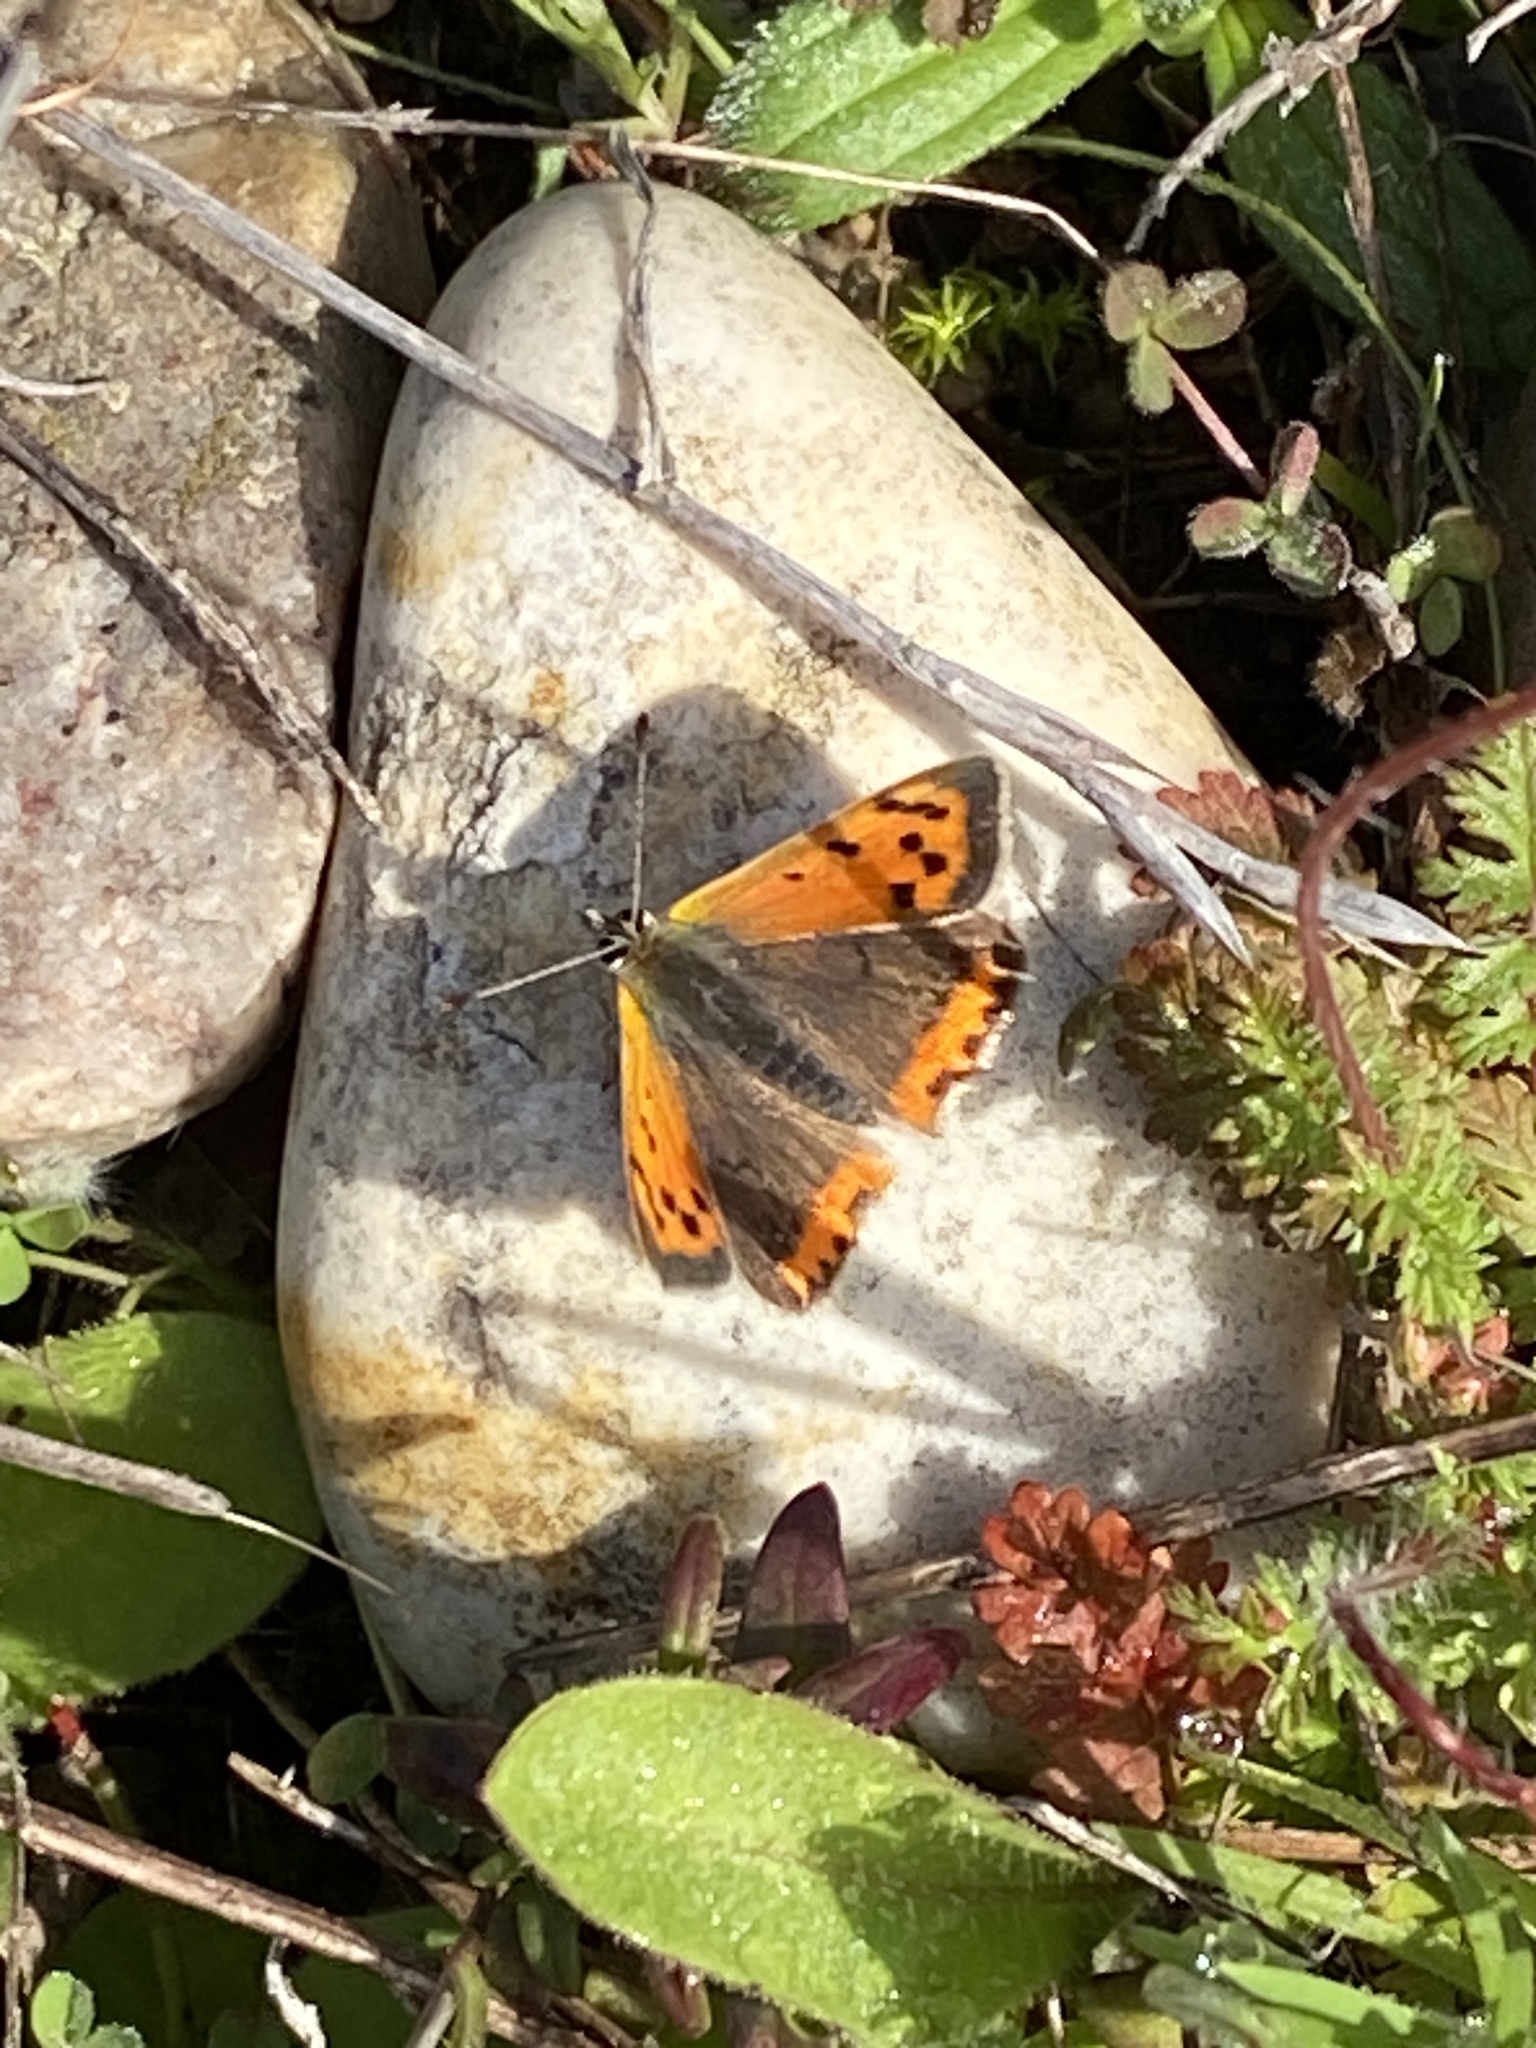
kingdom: Animalia
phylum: Arthropoda
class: Insecta
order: Lepidoptera
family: Lycaenidae
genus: Lycaena
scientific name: Lycaena phlaeas
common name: Small copper
